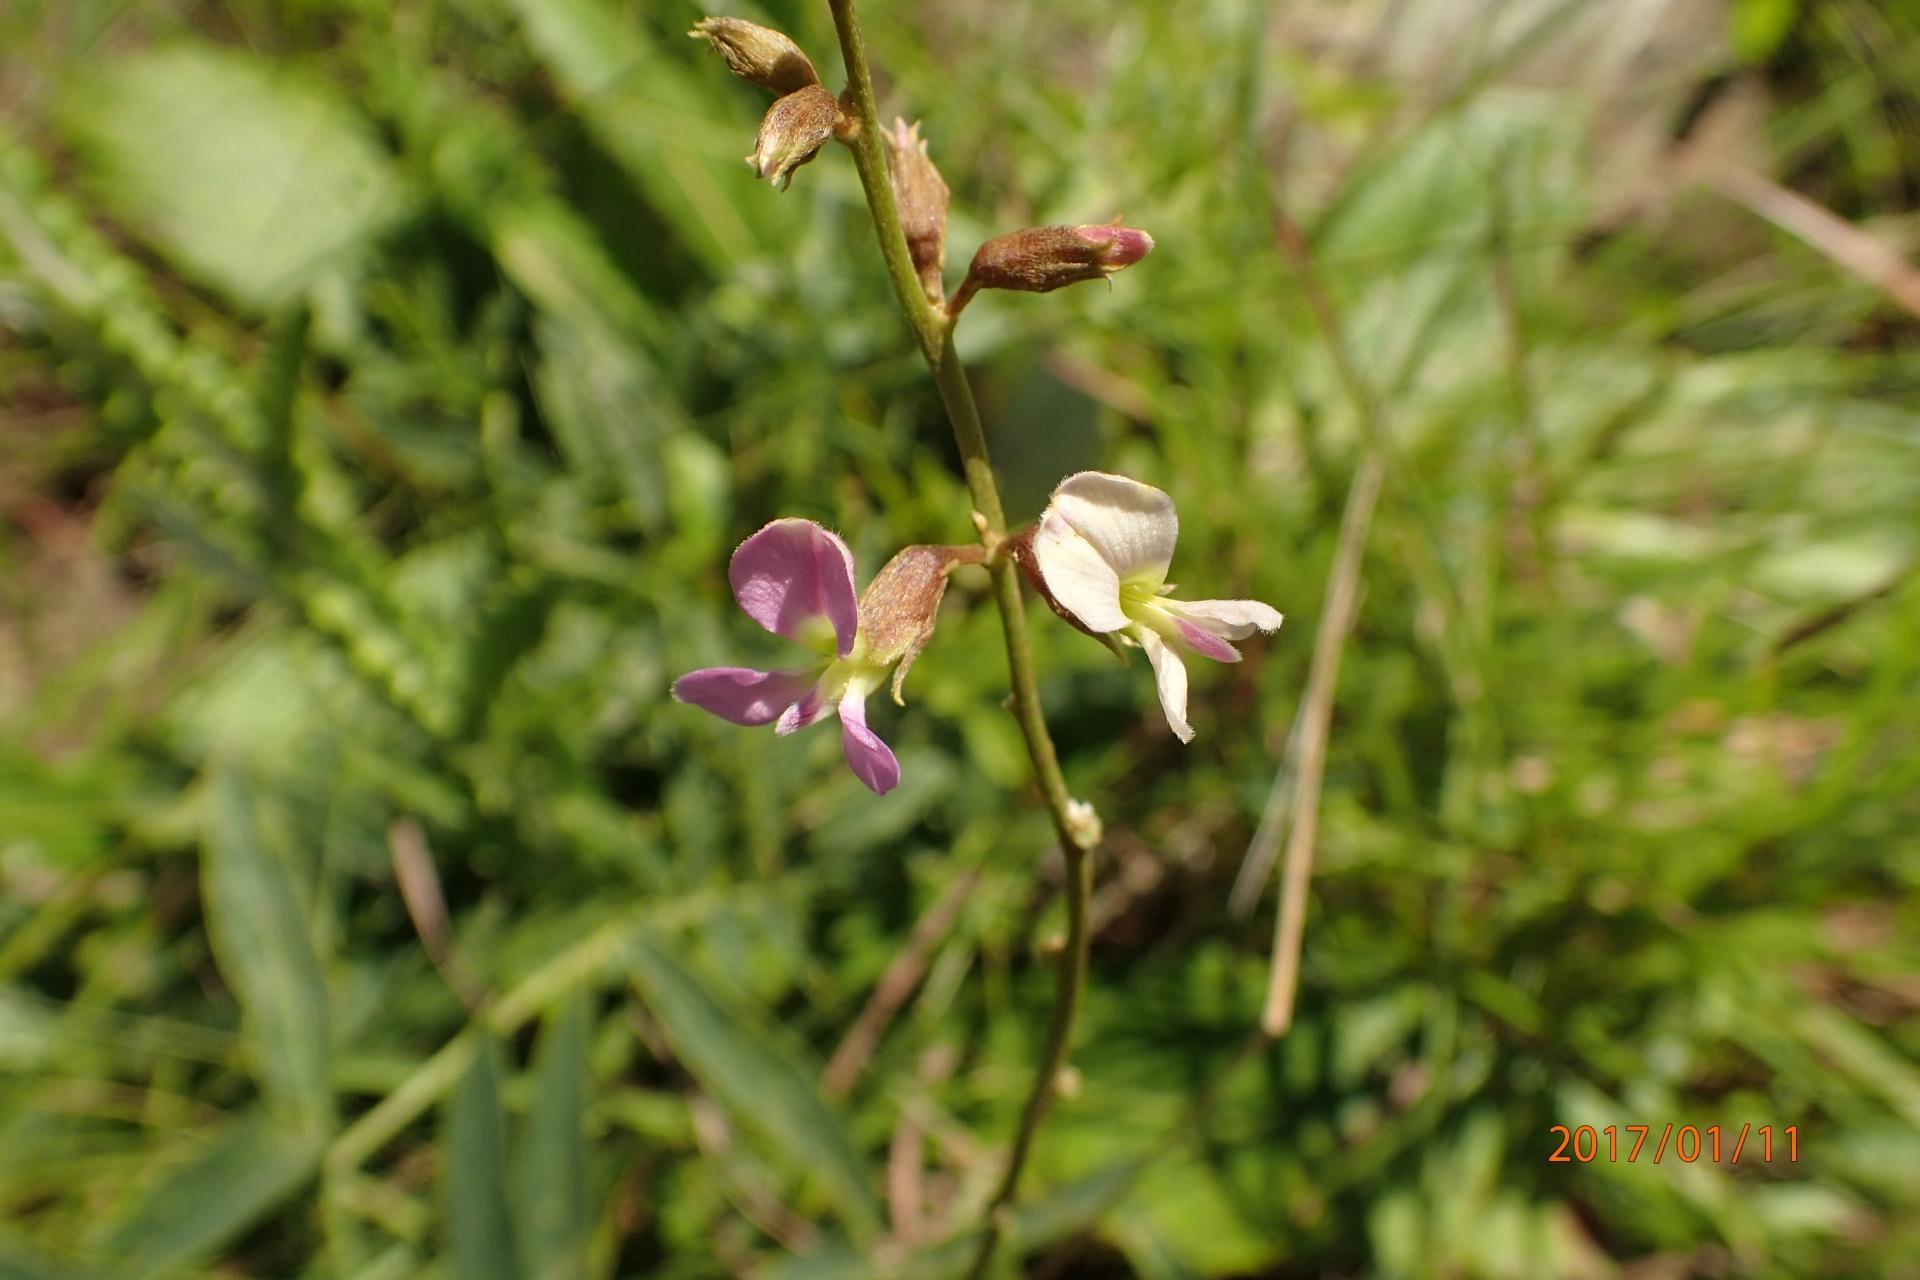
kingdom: Plantae
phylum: Tracheophyta
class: Magnoliopsida
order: Fabales
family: Fabaceae
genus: Ophrestia
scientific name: Ophrestia oblongifolia
